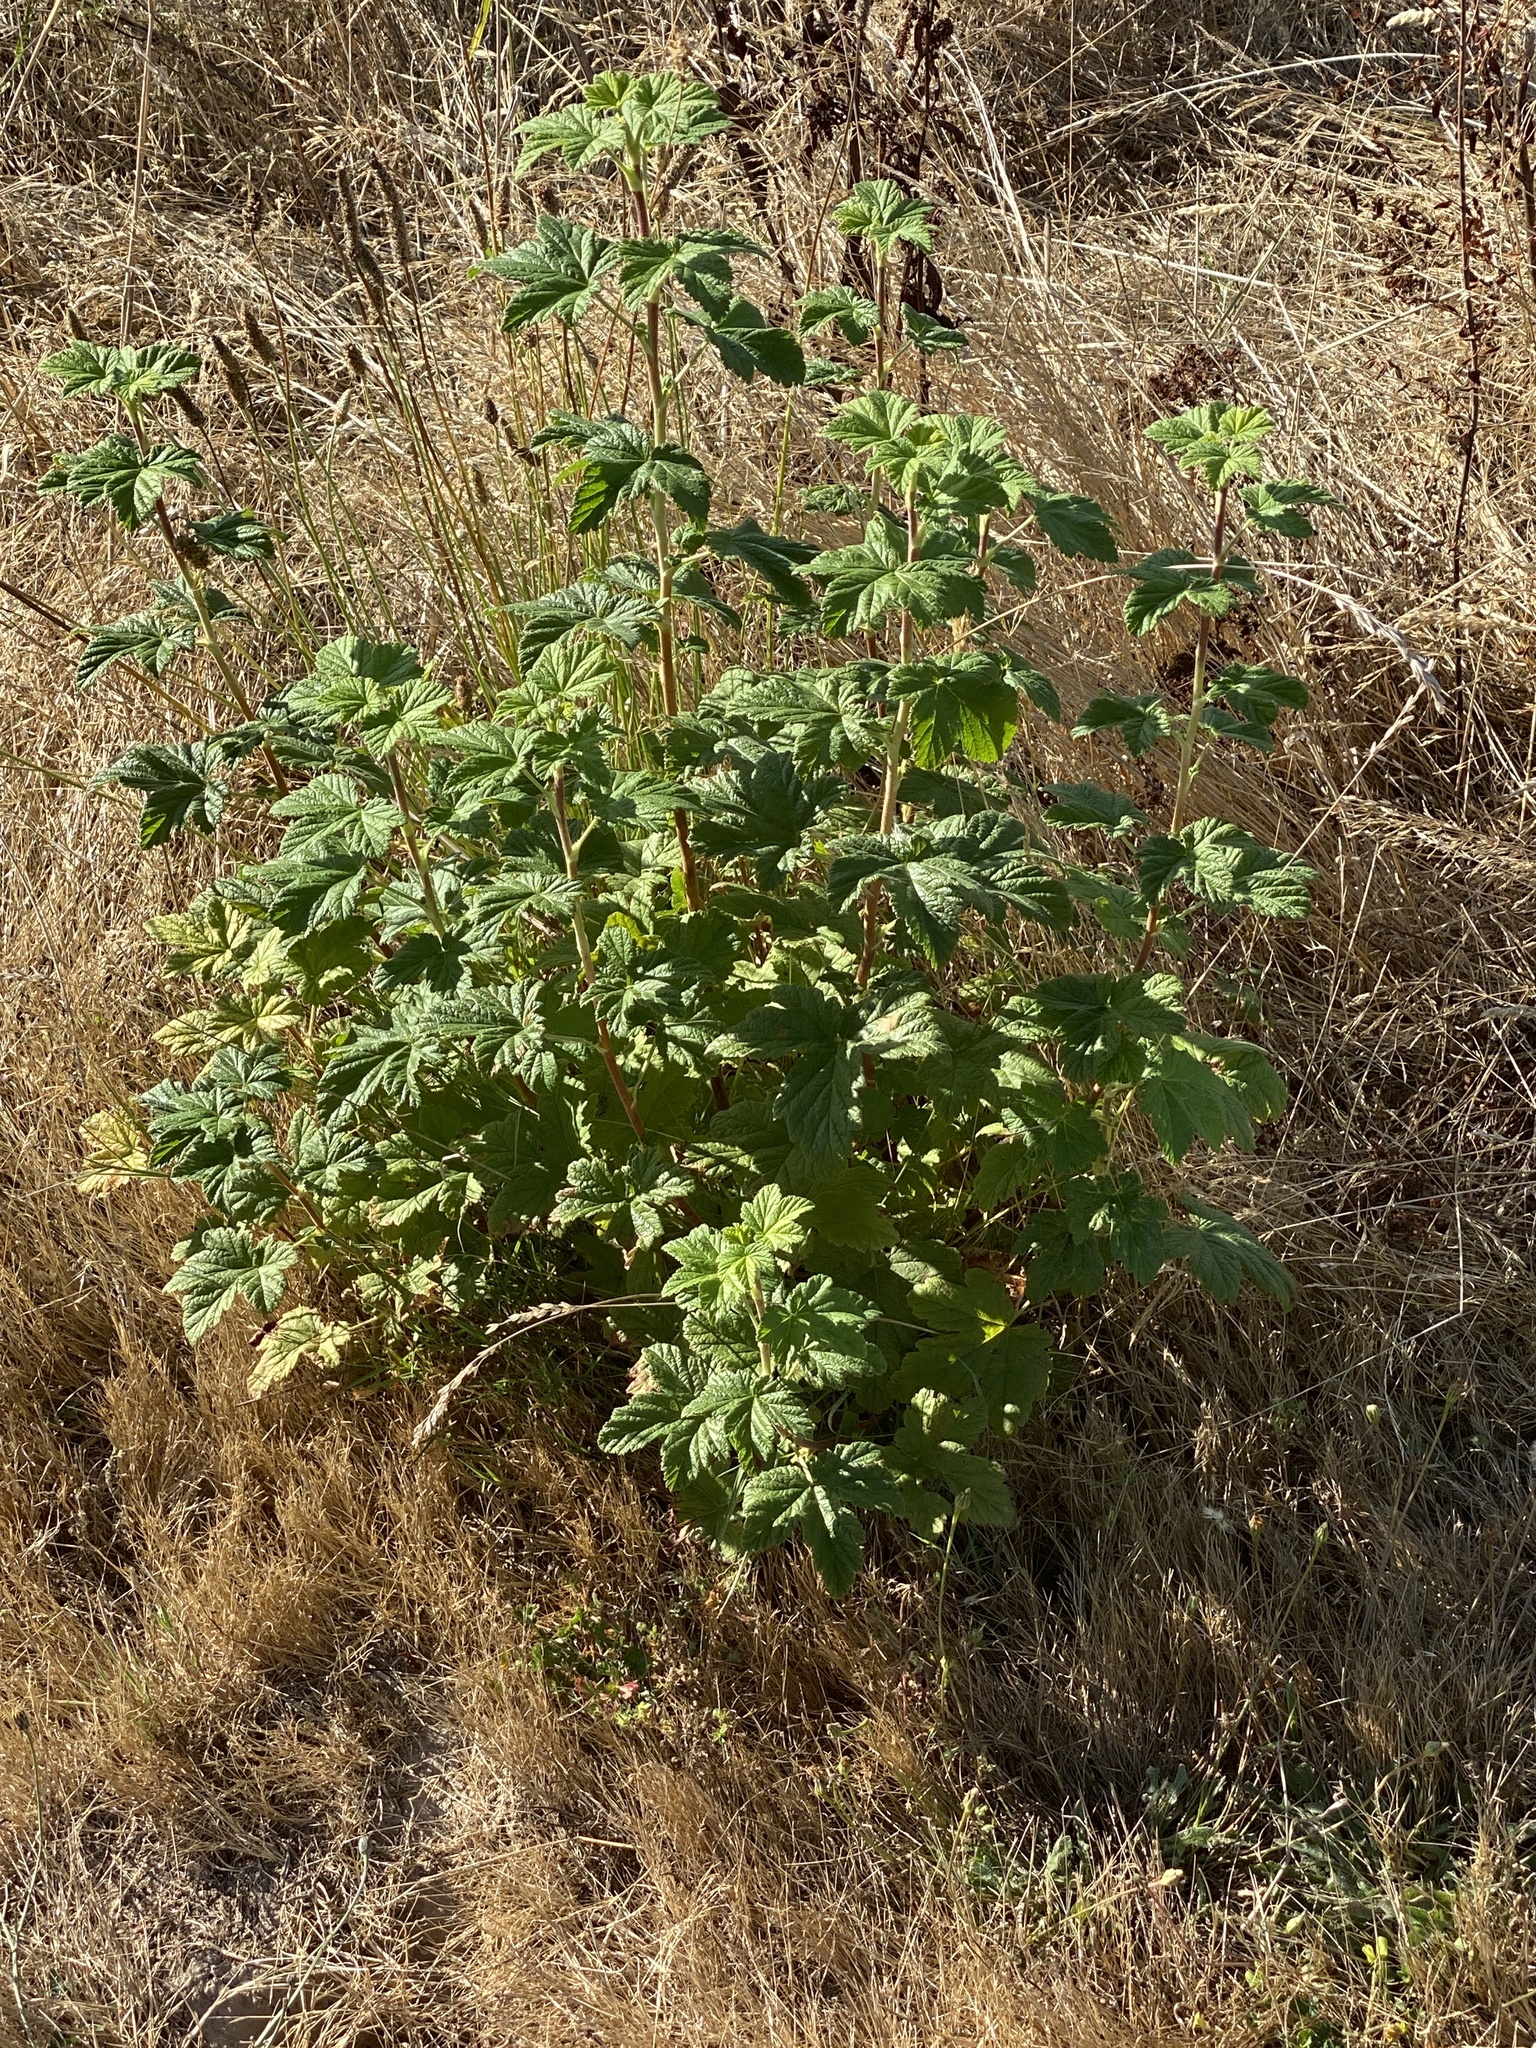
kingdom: Plantae
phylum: Tracheophyta
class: Magnoliopsida
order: Saxifragales
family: Grossulariaceae
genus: Ribes
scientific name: Ribes sanguineum
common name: Flowering currant
